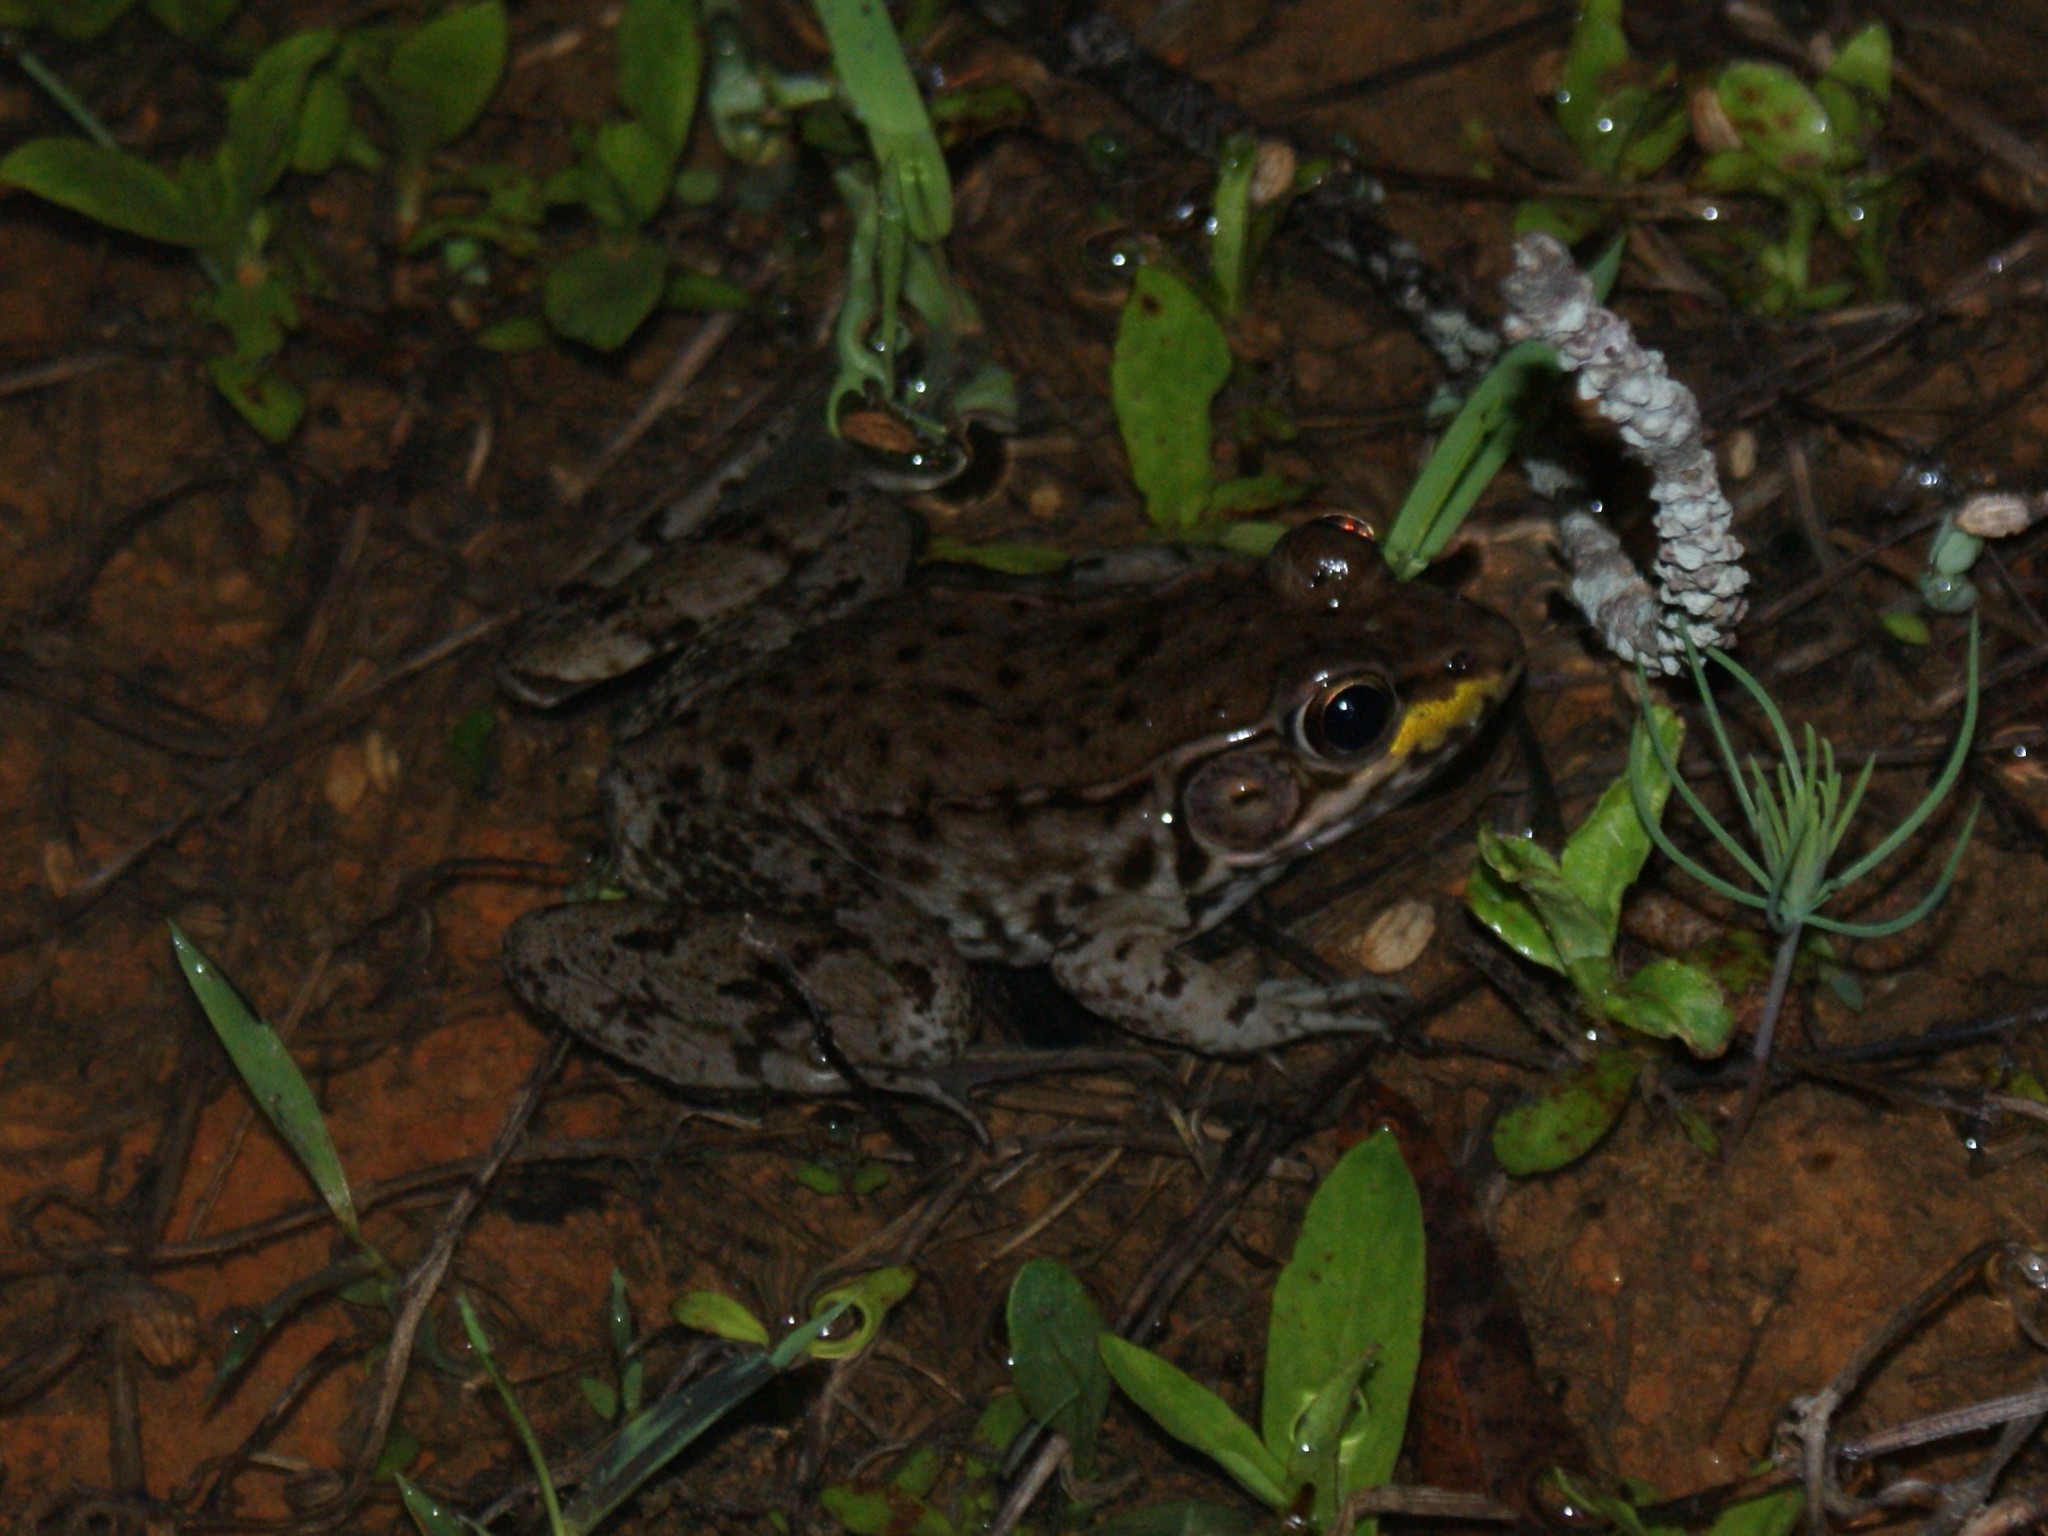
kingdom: Animalia
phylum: Chordata
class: Amphibia
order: Anura
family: Ranidae
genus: Lithobates
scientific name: Lithobates clamitans
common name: Green frog
